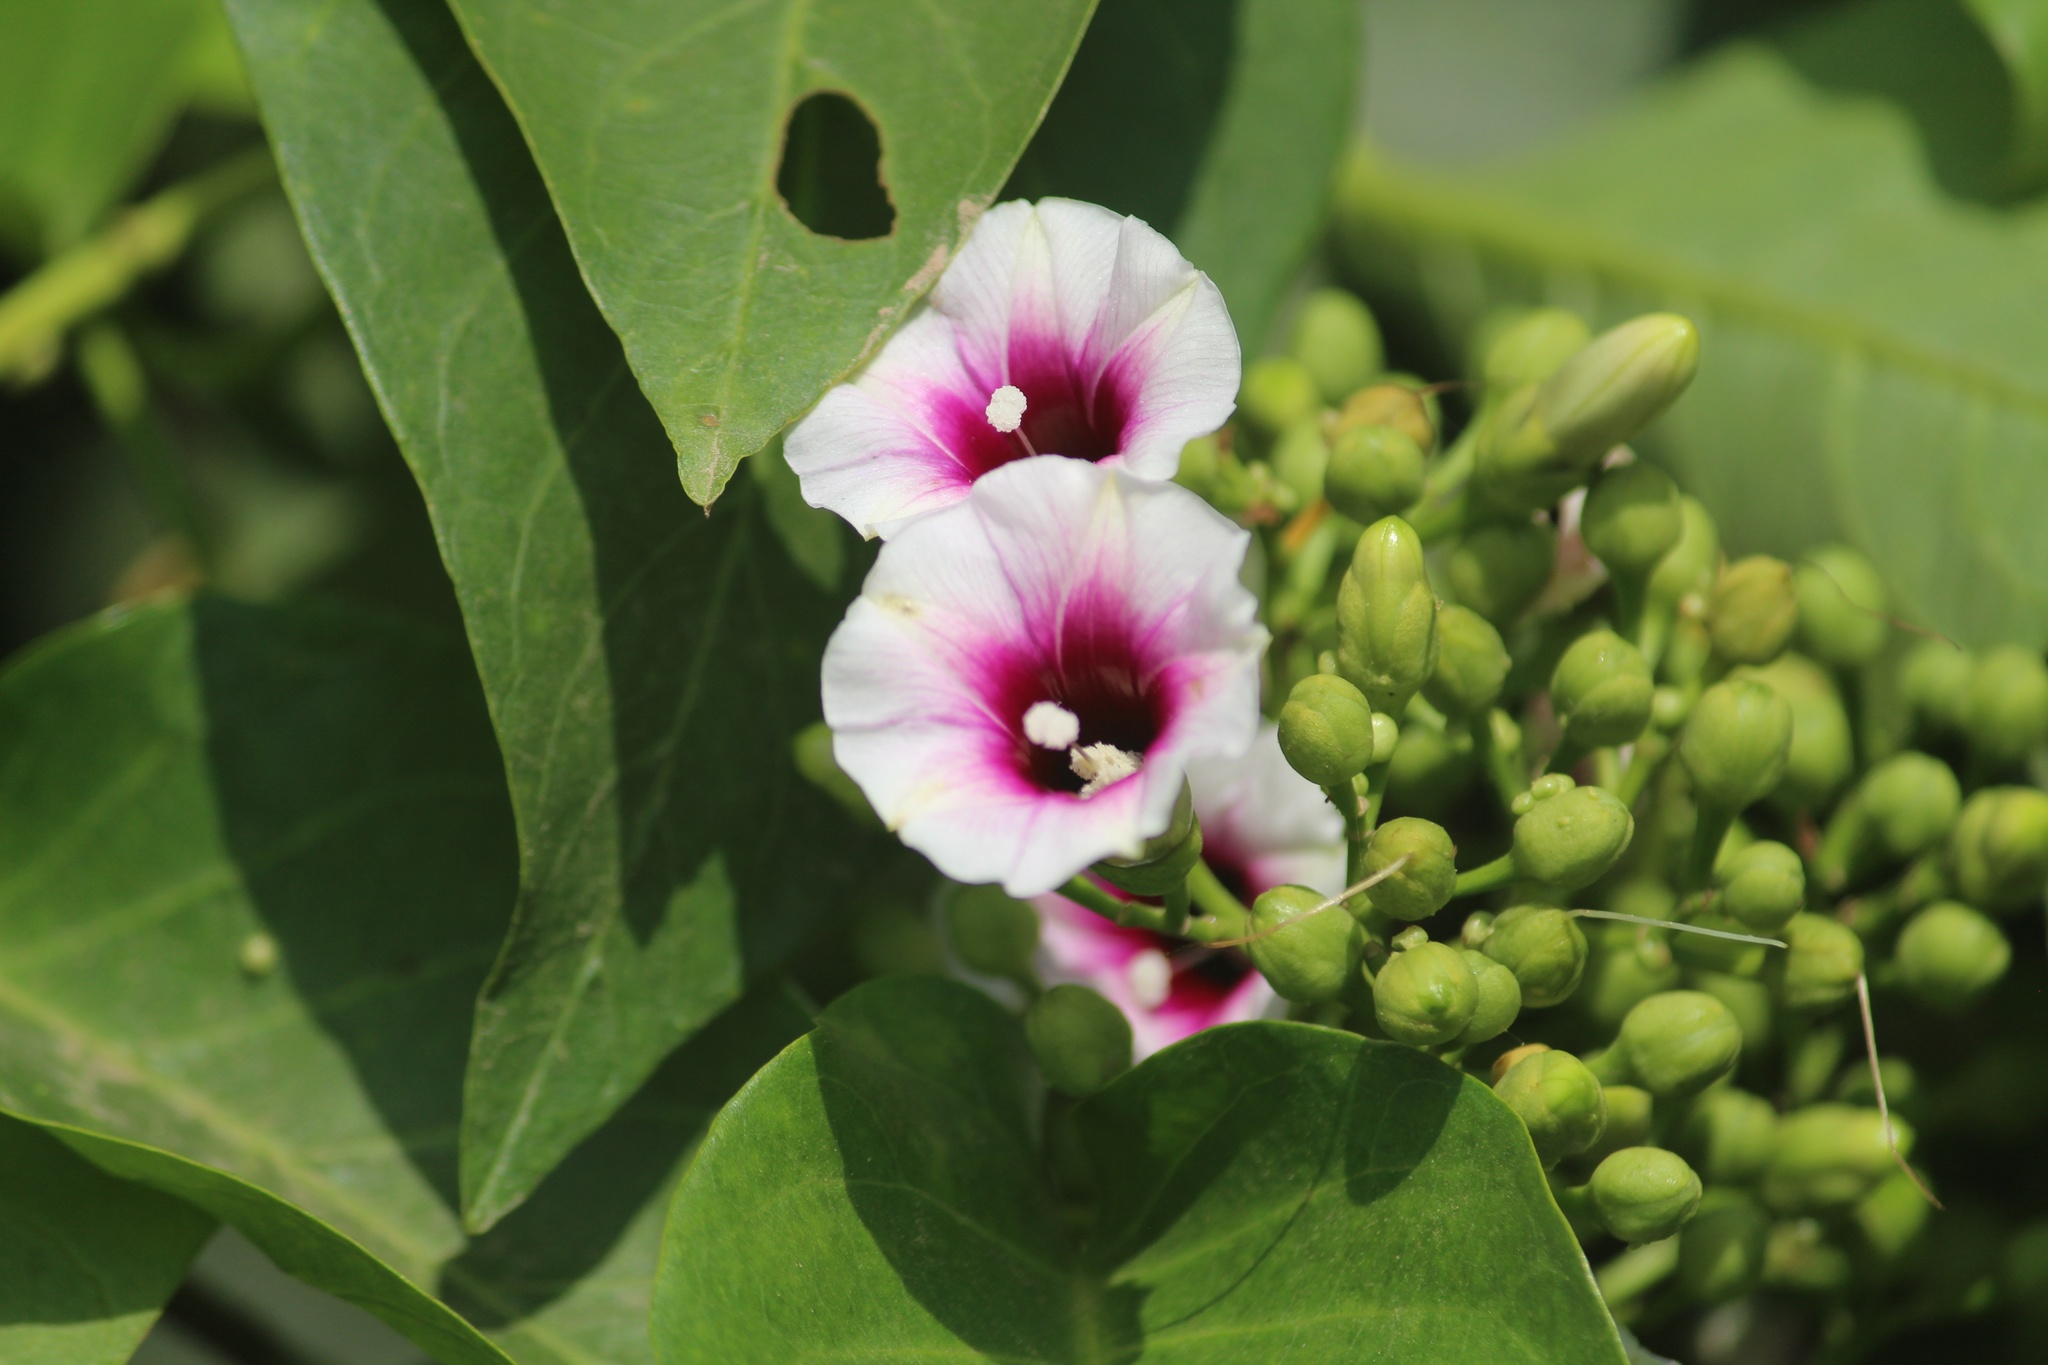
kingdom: Plantae
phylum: Tracheophyta
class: Magnoliopsida
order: Solanales
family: Convolvulaceae
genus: Ipomoea
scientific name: Ipomoea staphylina
